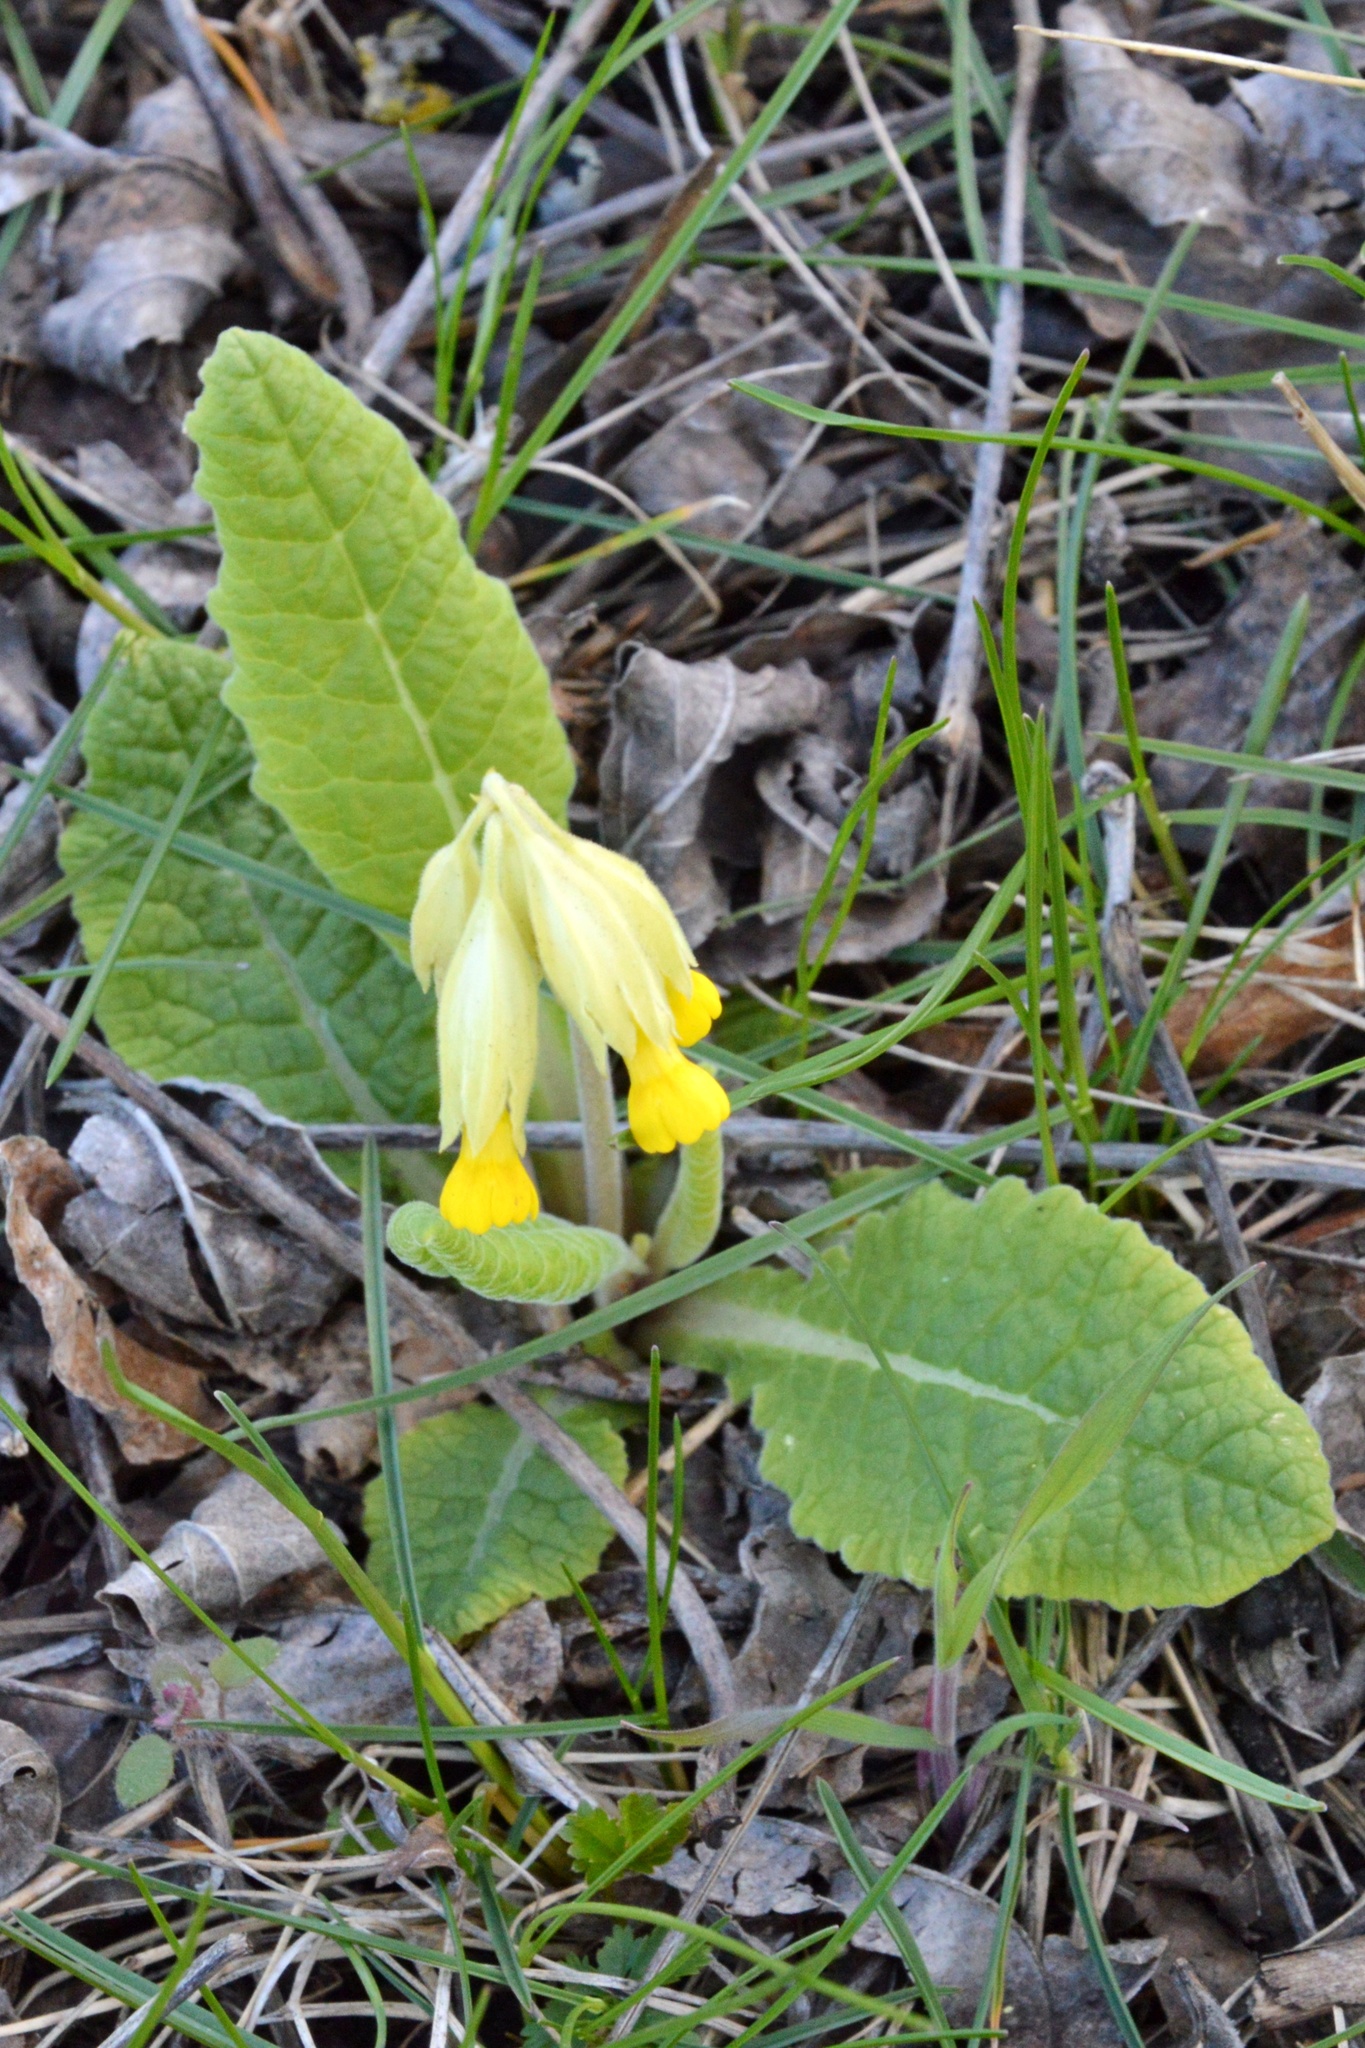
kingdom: Plantae
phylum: Tracheophyta
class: Magnoliopsida
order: Ericales
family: Primulaceae
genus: Primula
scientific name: Primula veris
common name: Cowslip
